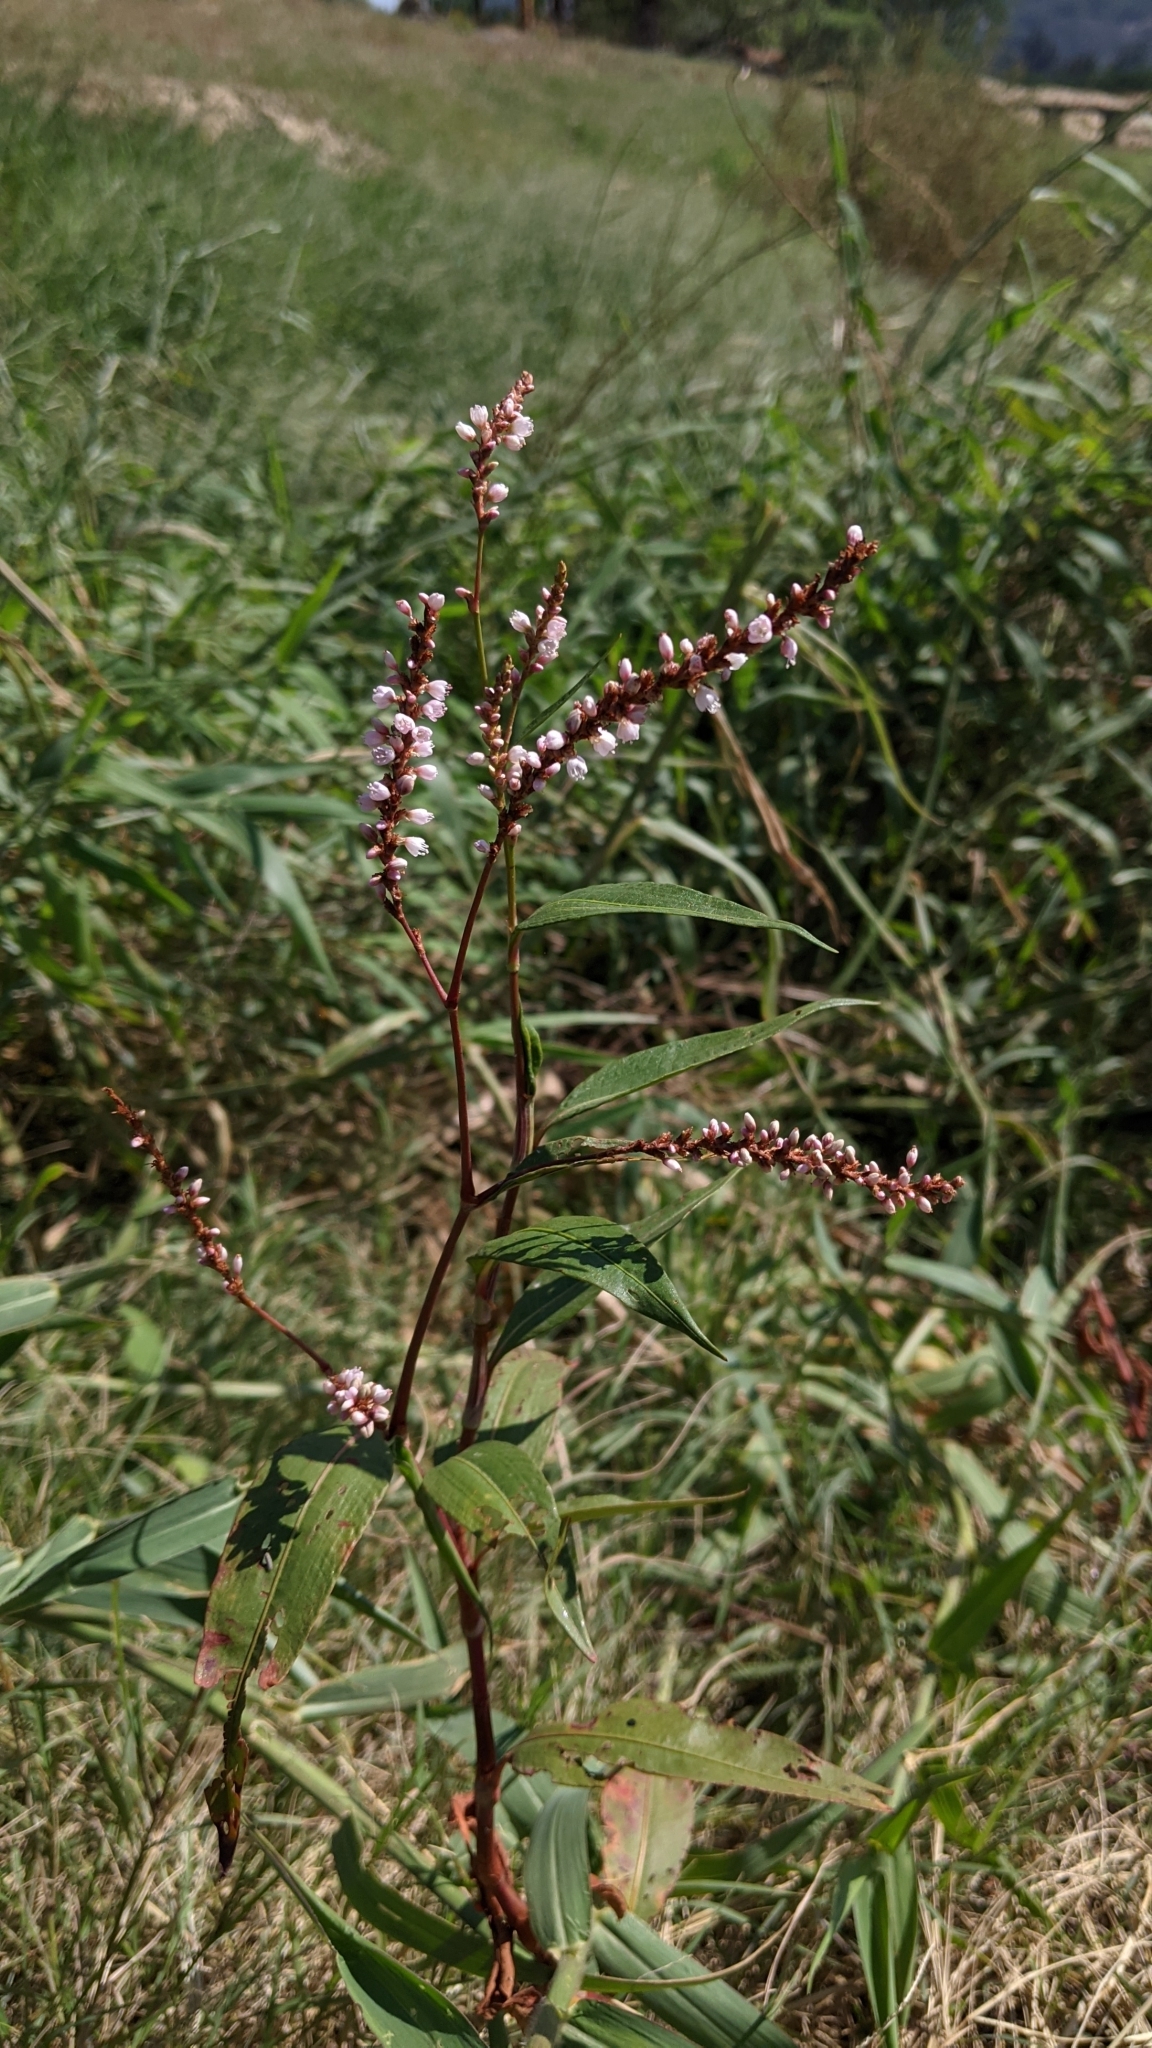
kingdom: Plantae
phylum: Tracheophyta
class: Magnoliopsida
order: Caryophyllales
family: Polygonaceae
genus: Persicaria
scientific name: Persicaria glabra
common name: Denseflower knotweed
